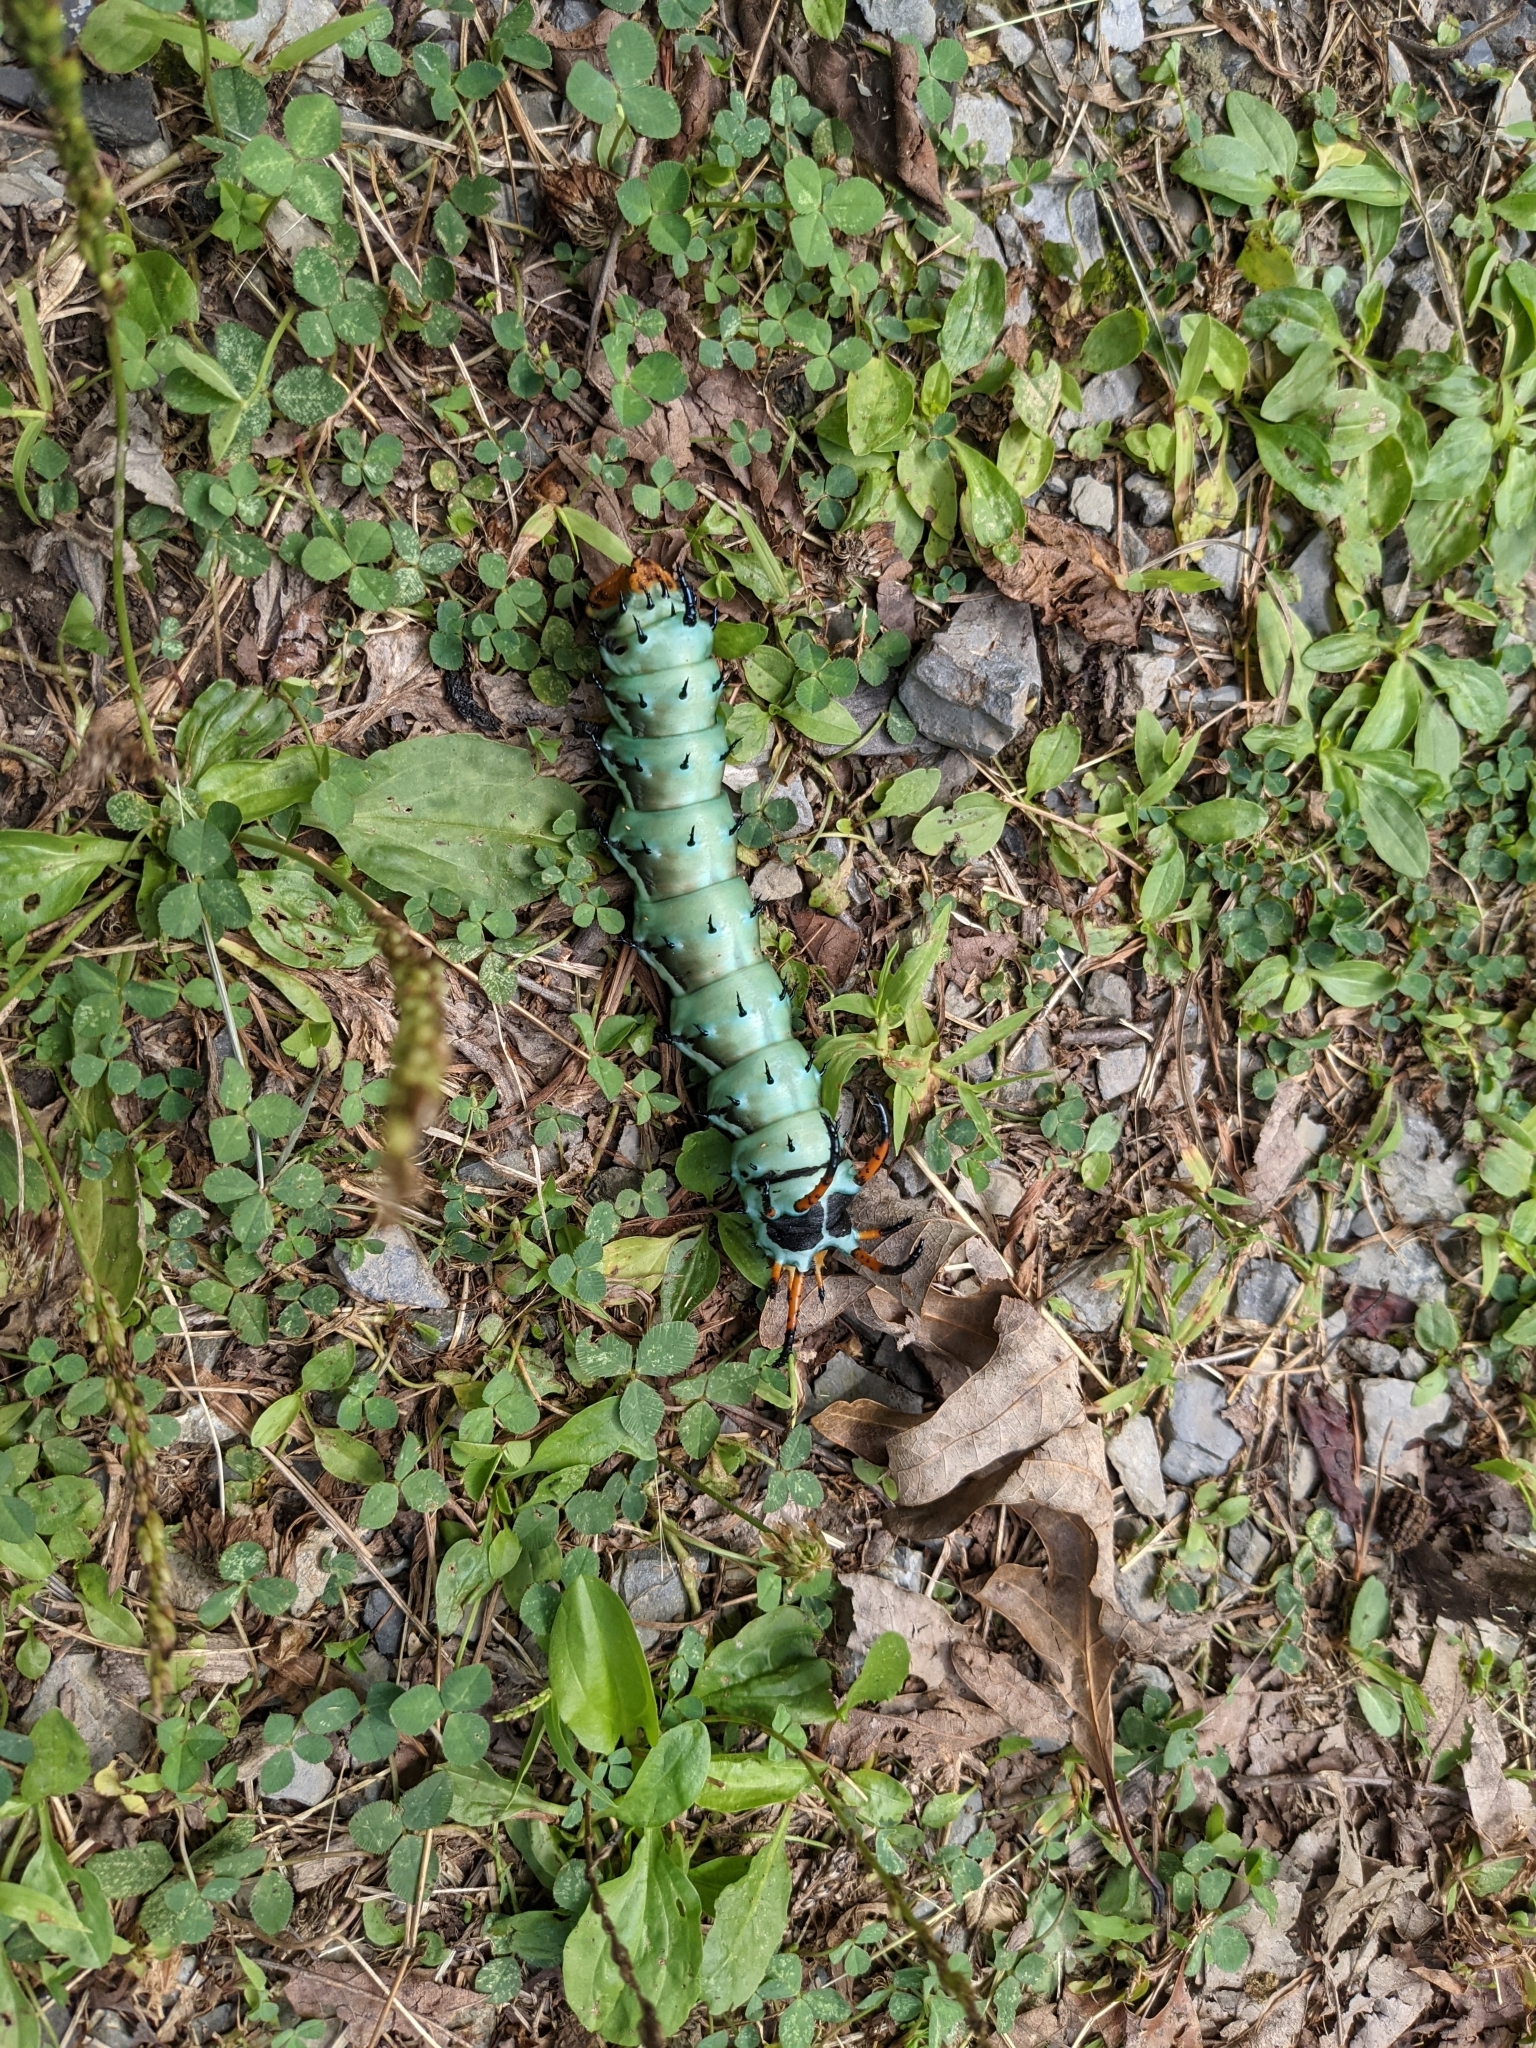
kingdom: Animalia
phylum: Arthropoda
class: Insecta
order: Lepidoptera
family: Saturniidae
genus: Citheronia
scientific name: Citheronia regalis
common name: Hickory horned devil
